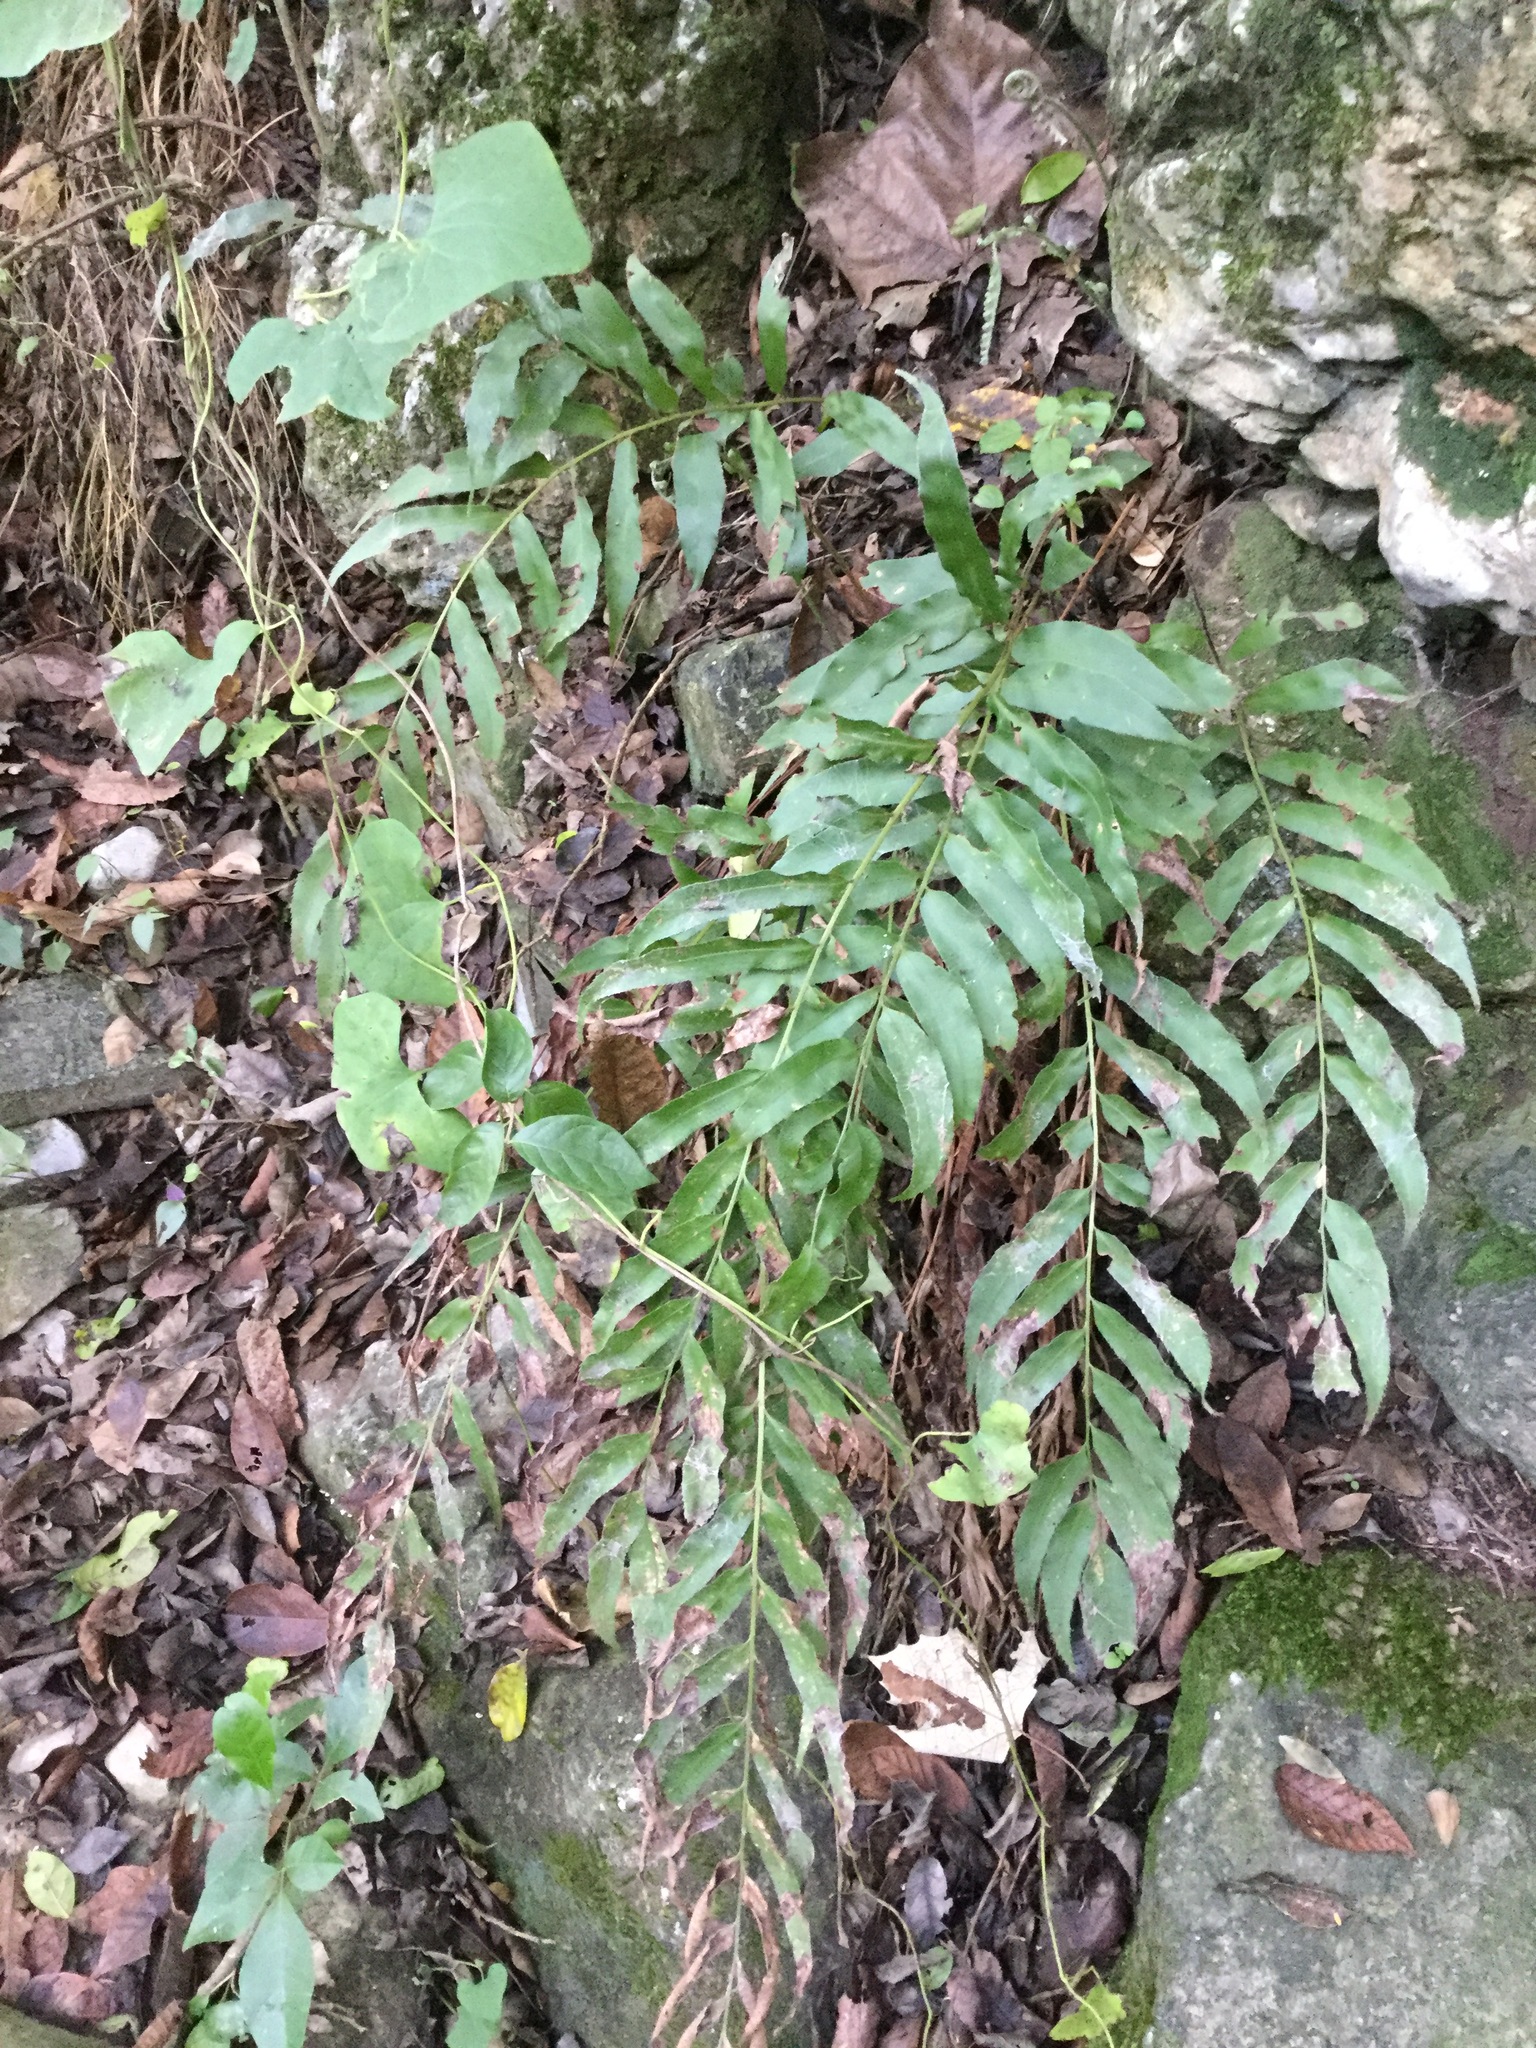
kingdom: Plantae
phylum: Tracheophyta
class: Polypodiopsida
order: Polypodiales
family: Dryopteridaceae
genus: Phanerophlebia
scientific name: Phanerophlebia umbonata
